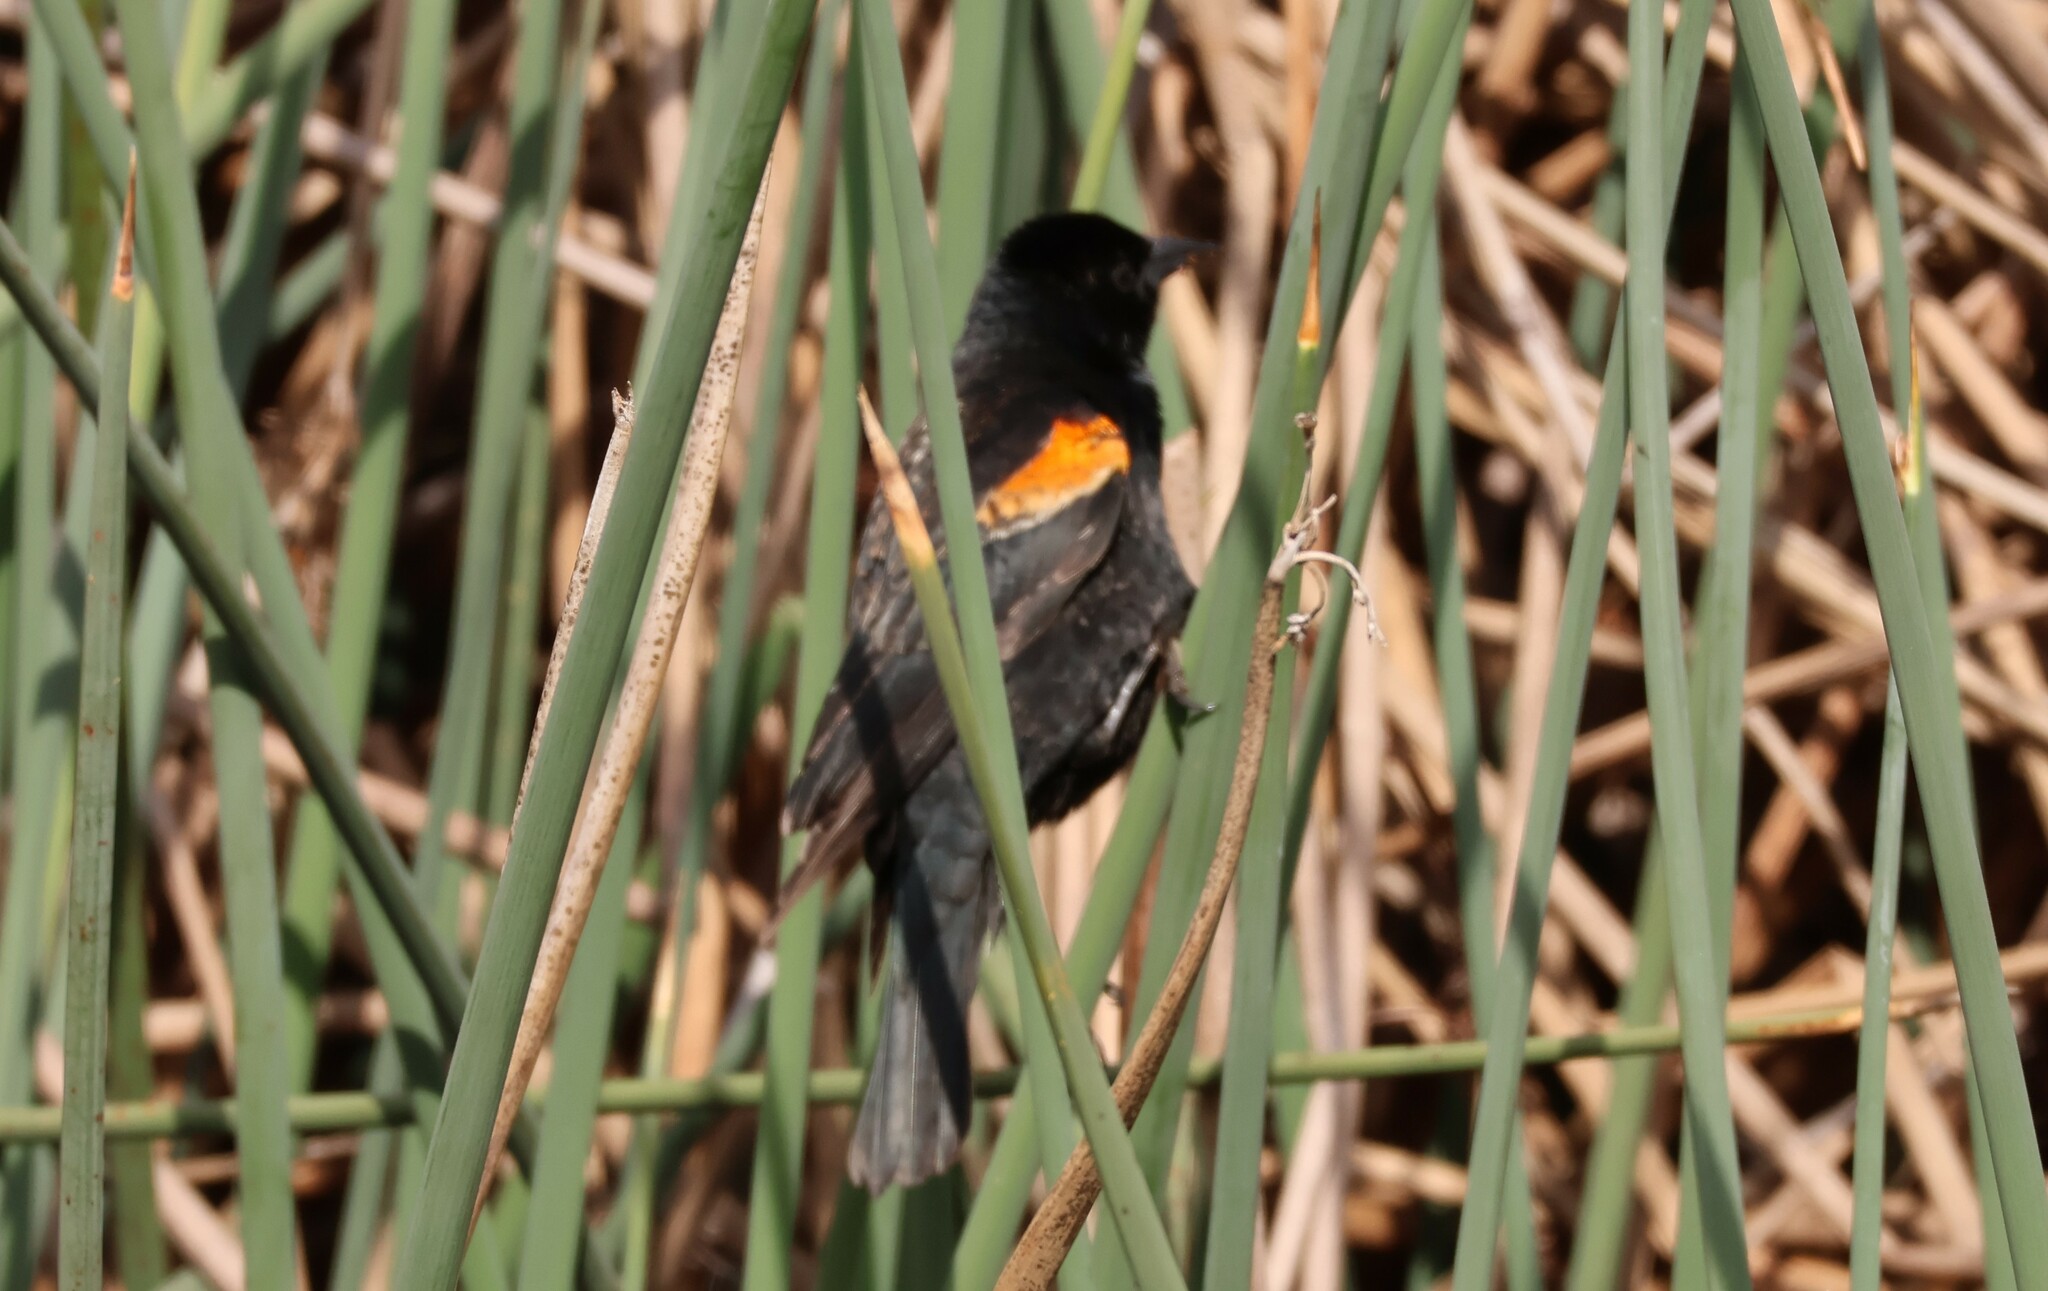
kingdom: Animalia
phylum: Chordata
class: Aves
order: Passeriformes
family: Icteridae
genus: Agelaius
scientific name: Agelaius phoeniceus
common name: Red-winged blackbird
